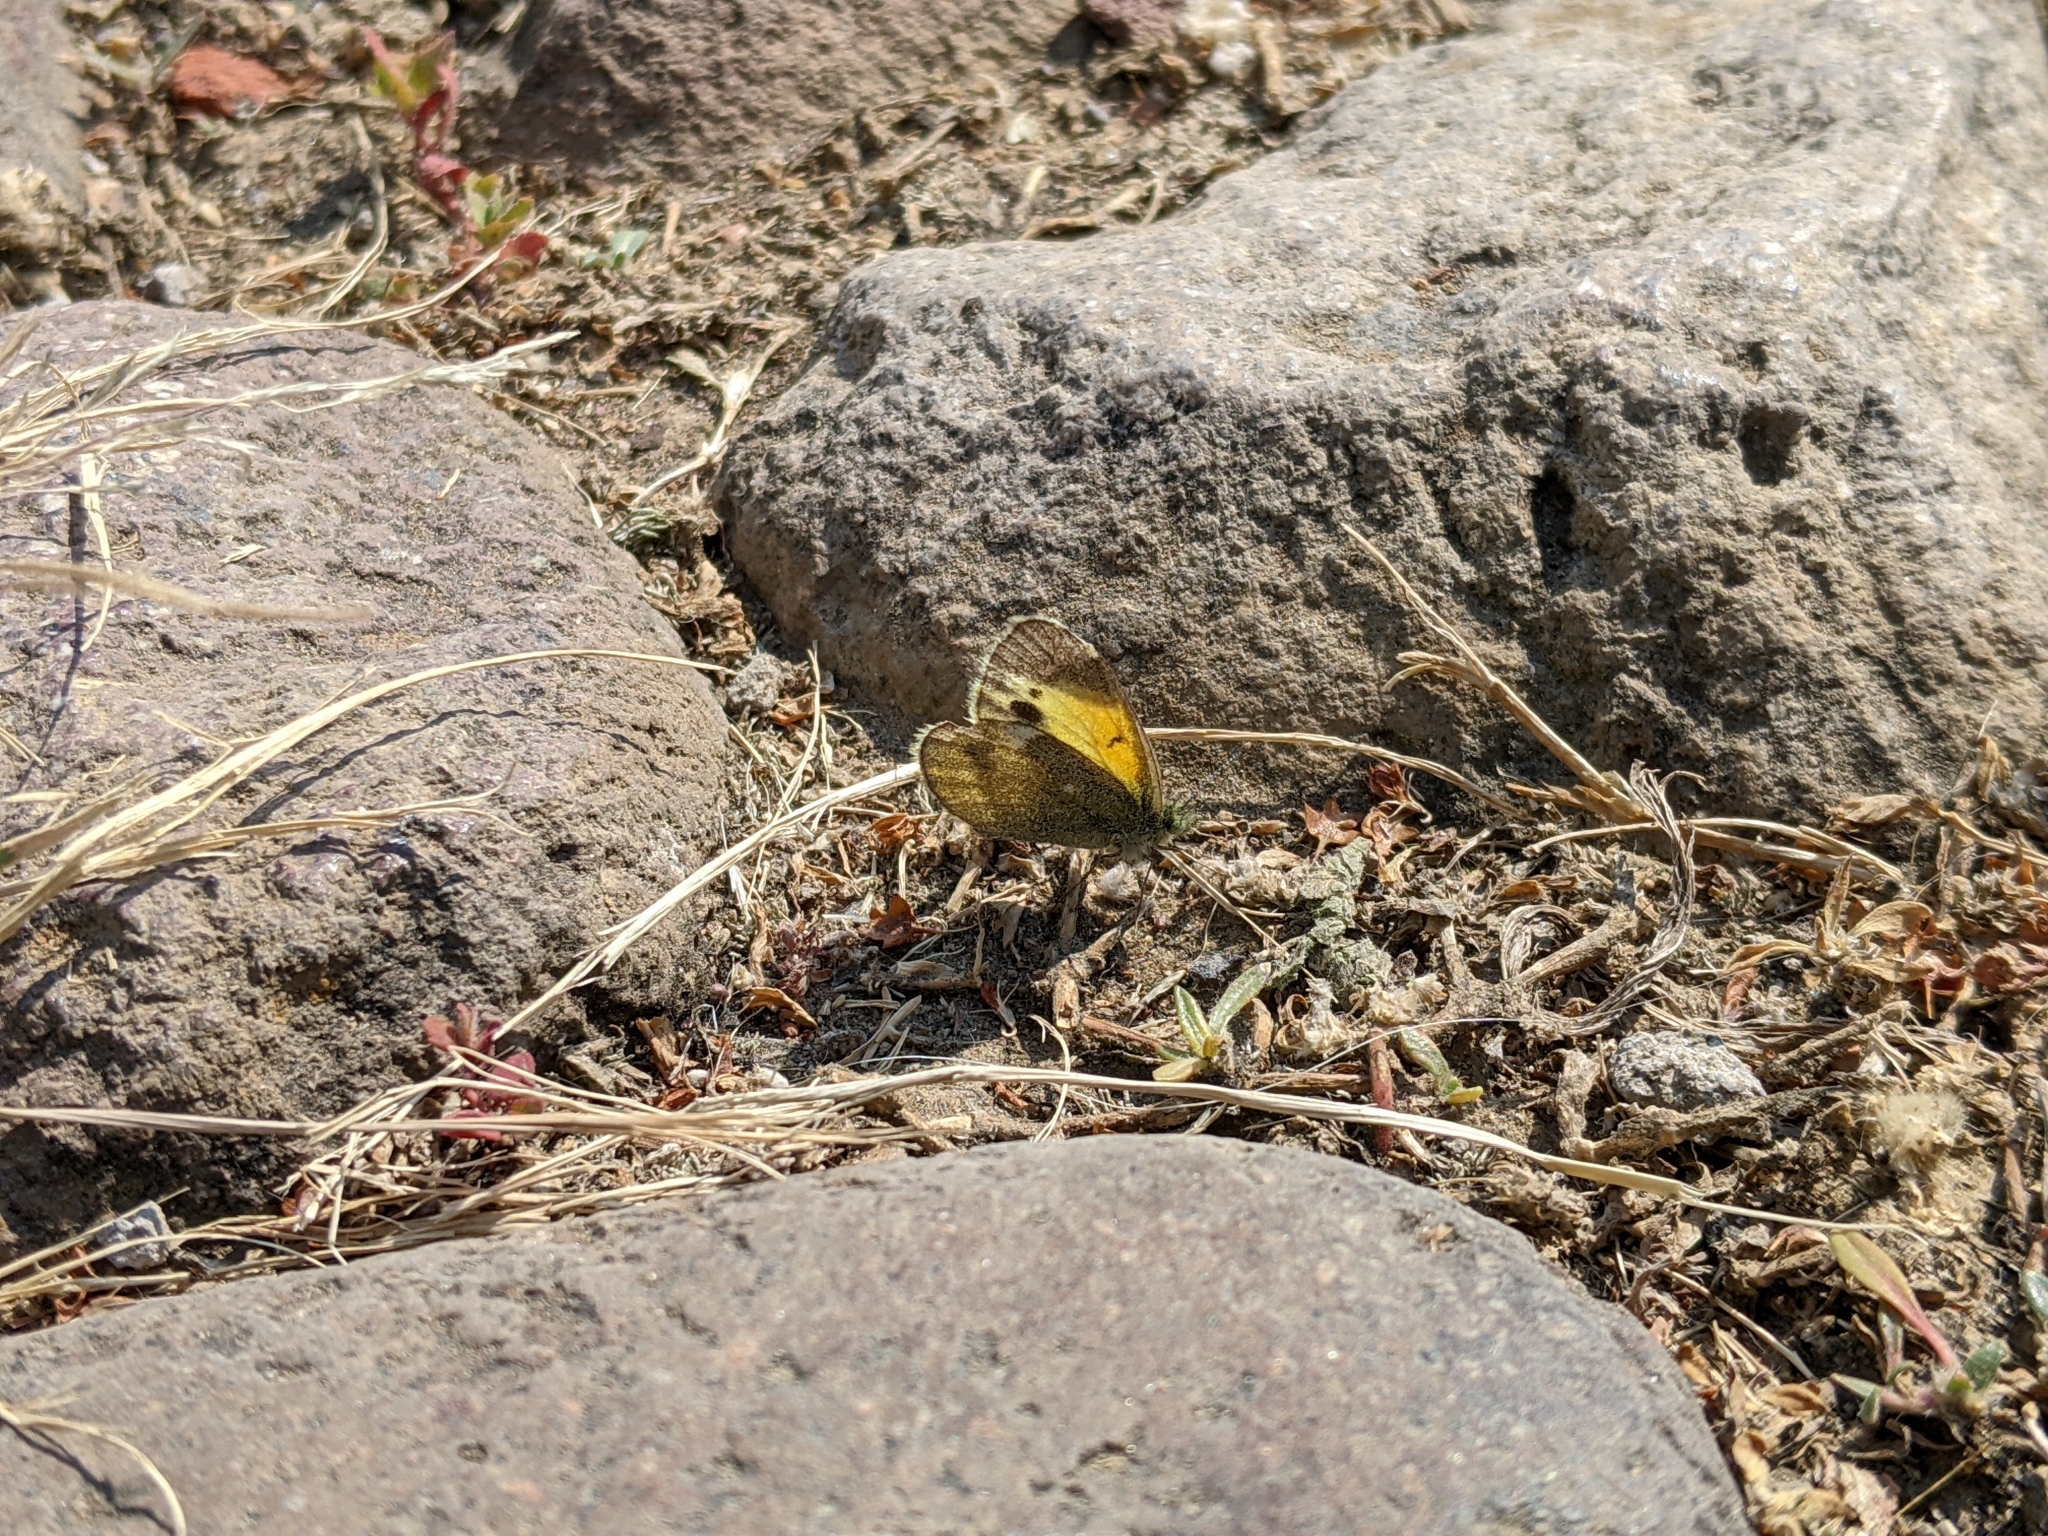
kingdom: Animalia
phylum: Arthropoda
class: Insecta
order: Lepidoptera
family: Pieridae
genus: Nathalis
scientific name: Nathalis iole
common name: Dainty sulphur
